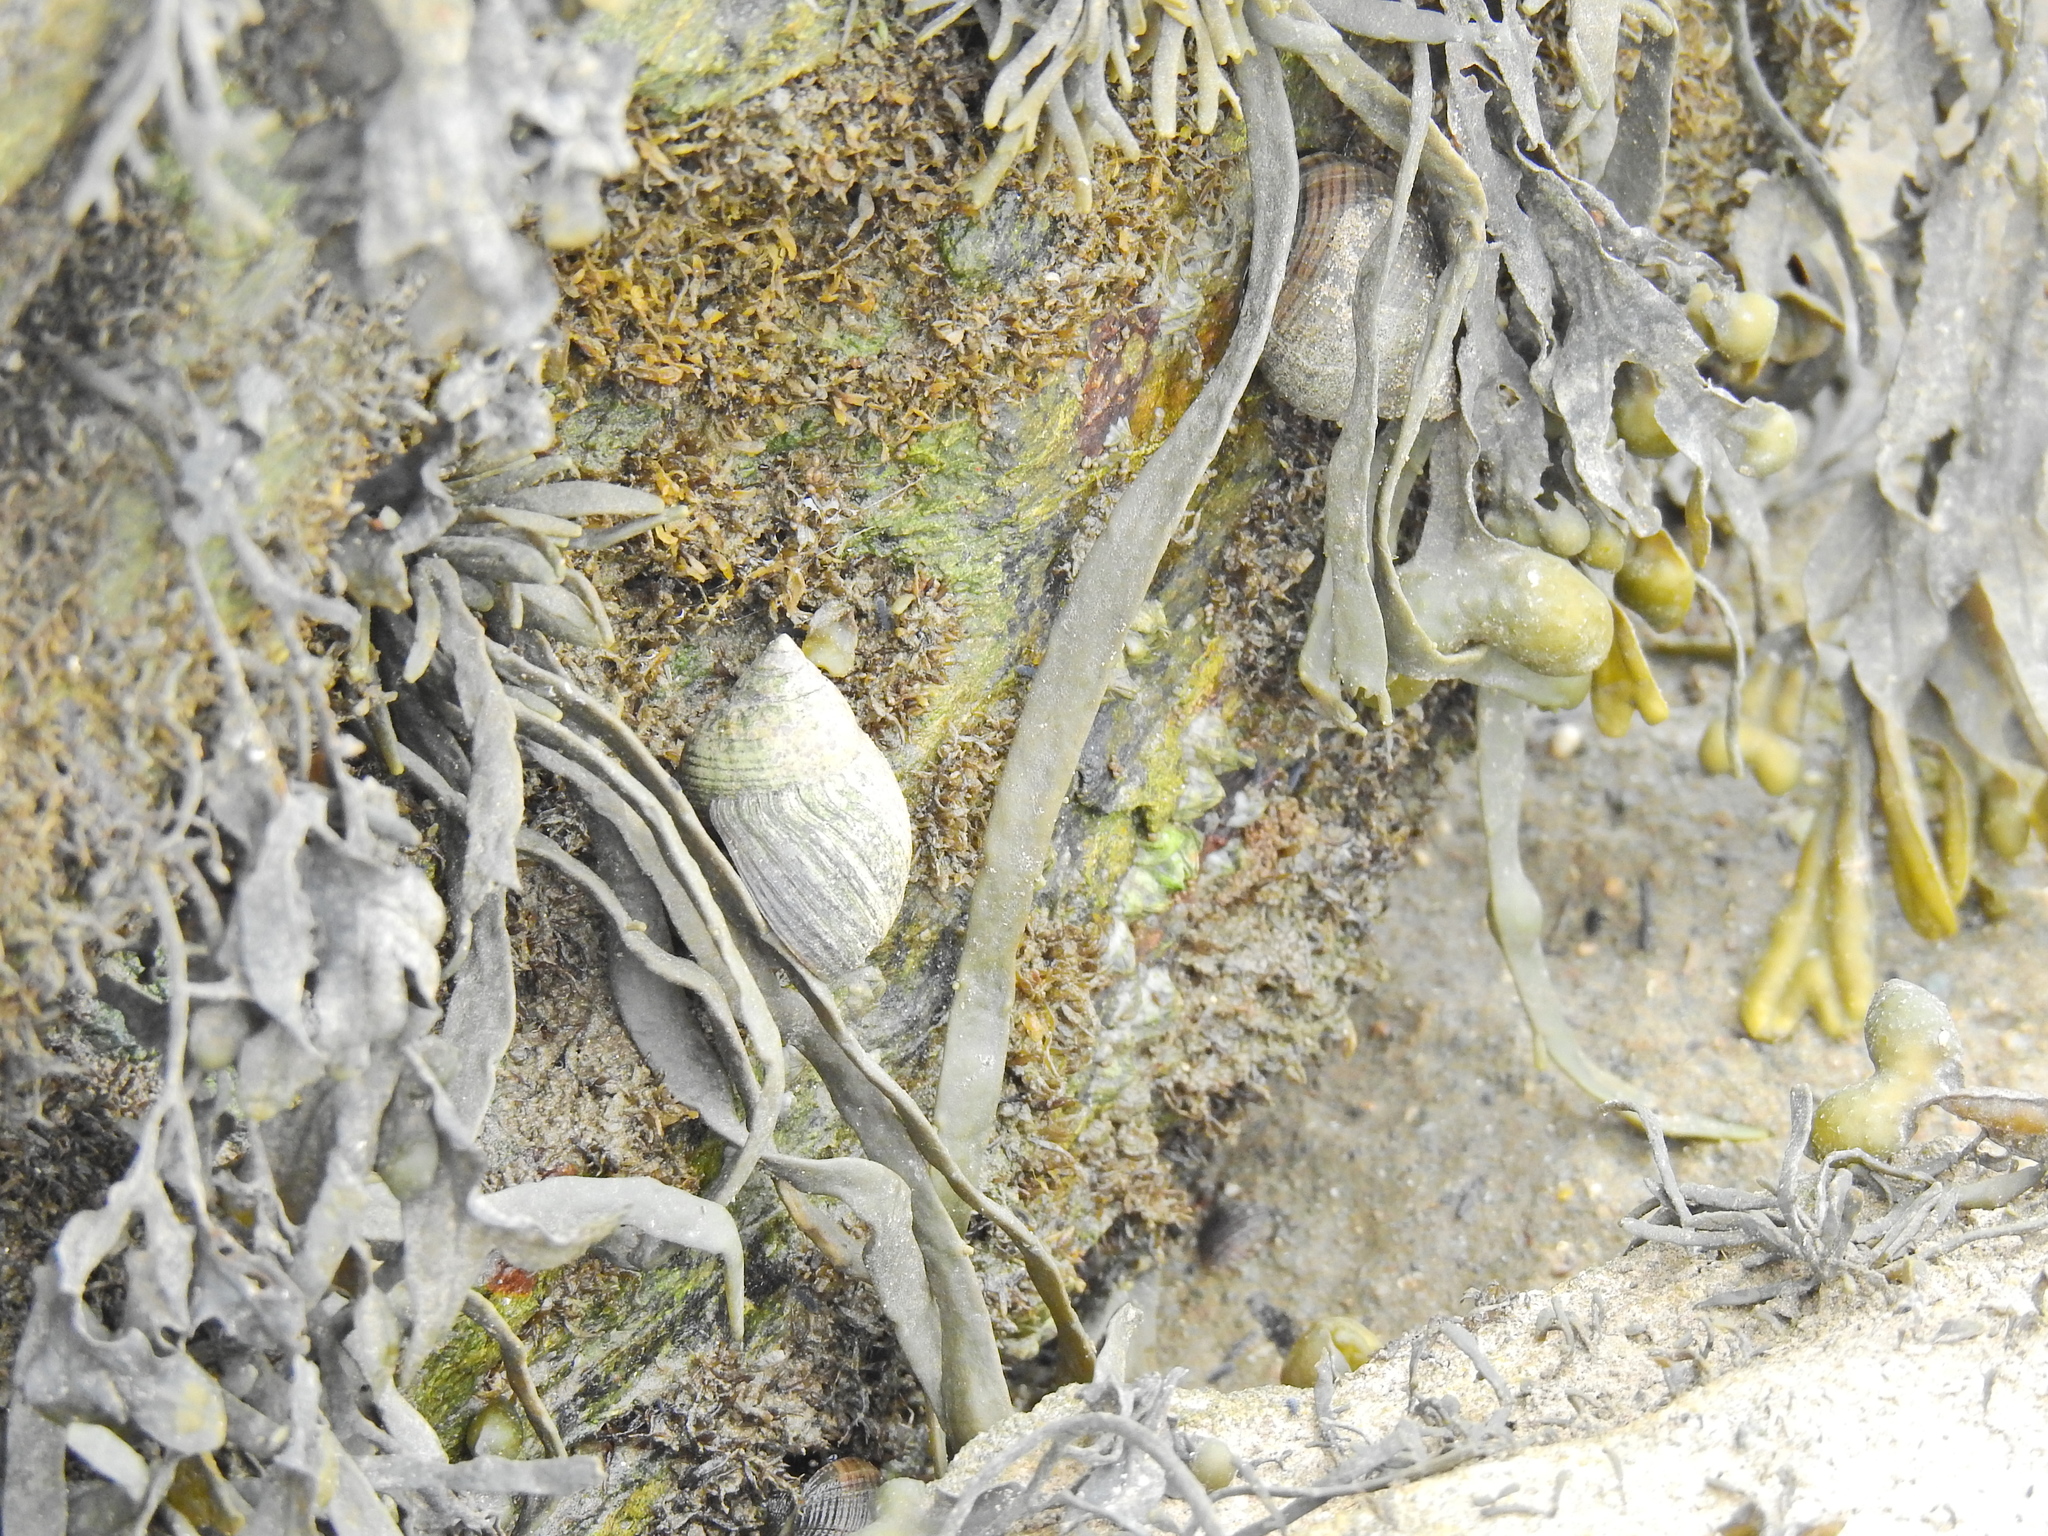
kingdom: Animalia
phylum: Mollusca
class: Gastropoda
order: Littorinimorpha
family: Littorinidae
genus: Littorina
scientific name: Littorina littorea
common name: Common periwinkle
